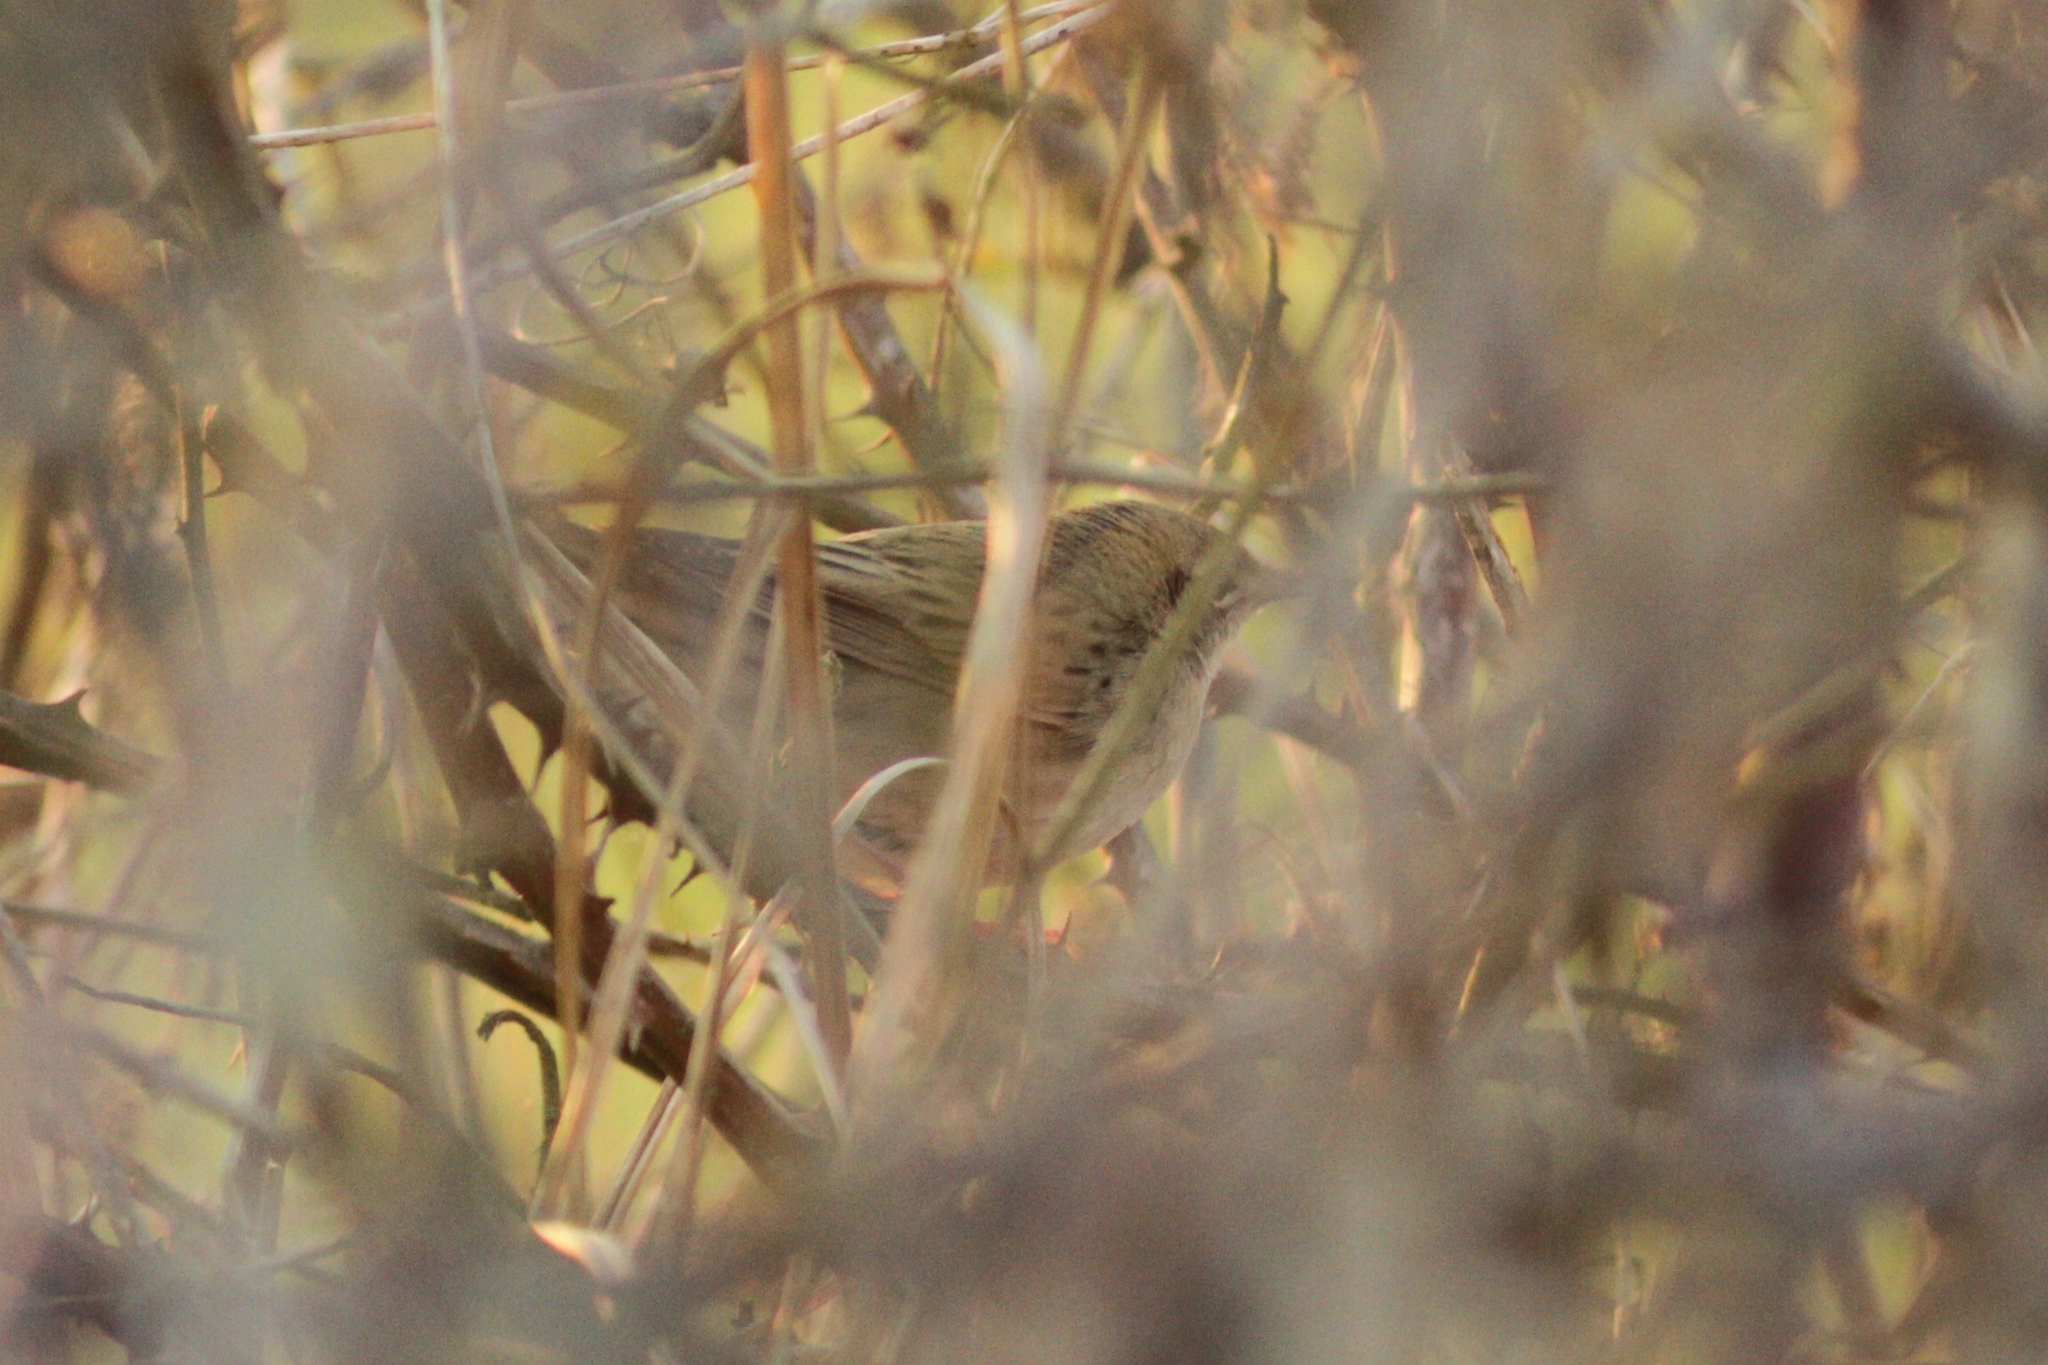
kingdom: Animalia
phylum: Chordata
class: Aves
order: Passeriformes
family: Locustellidae
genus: Locustella
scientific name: Locustella naevia
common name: Common grasshopper warbler
